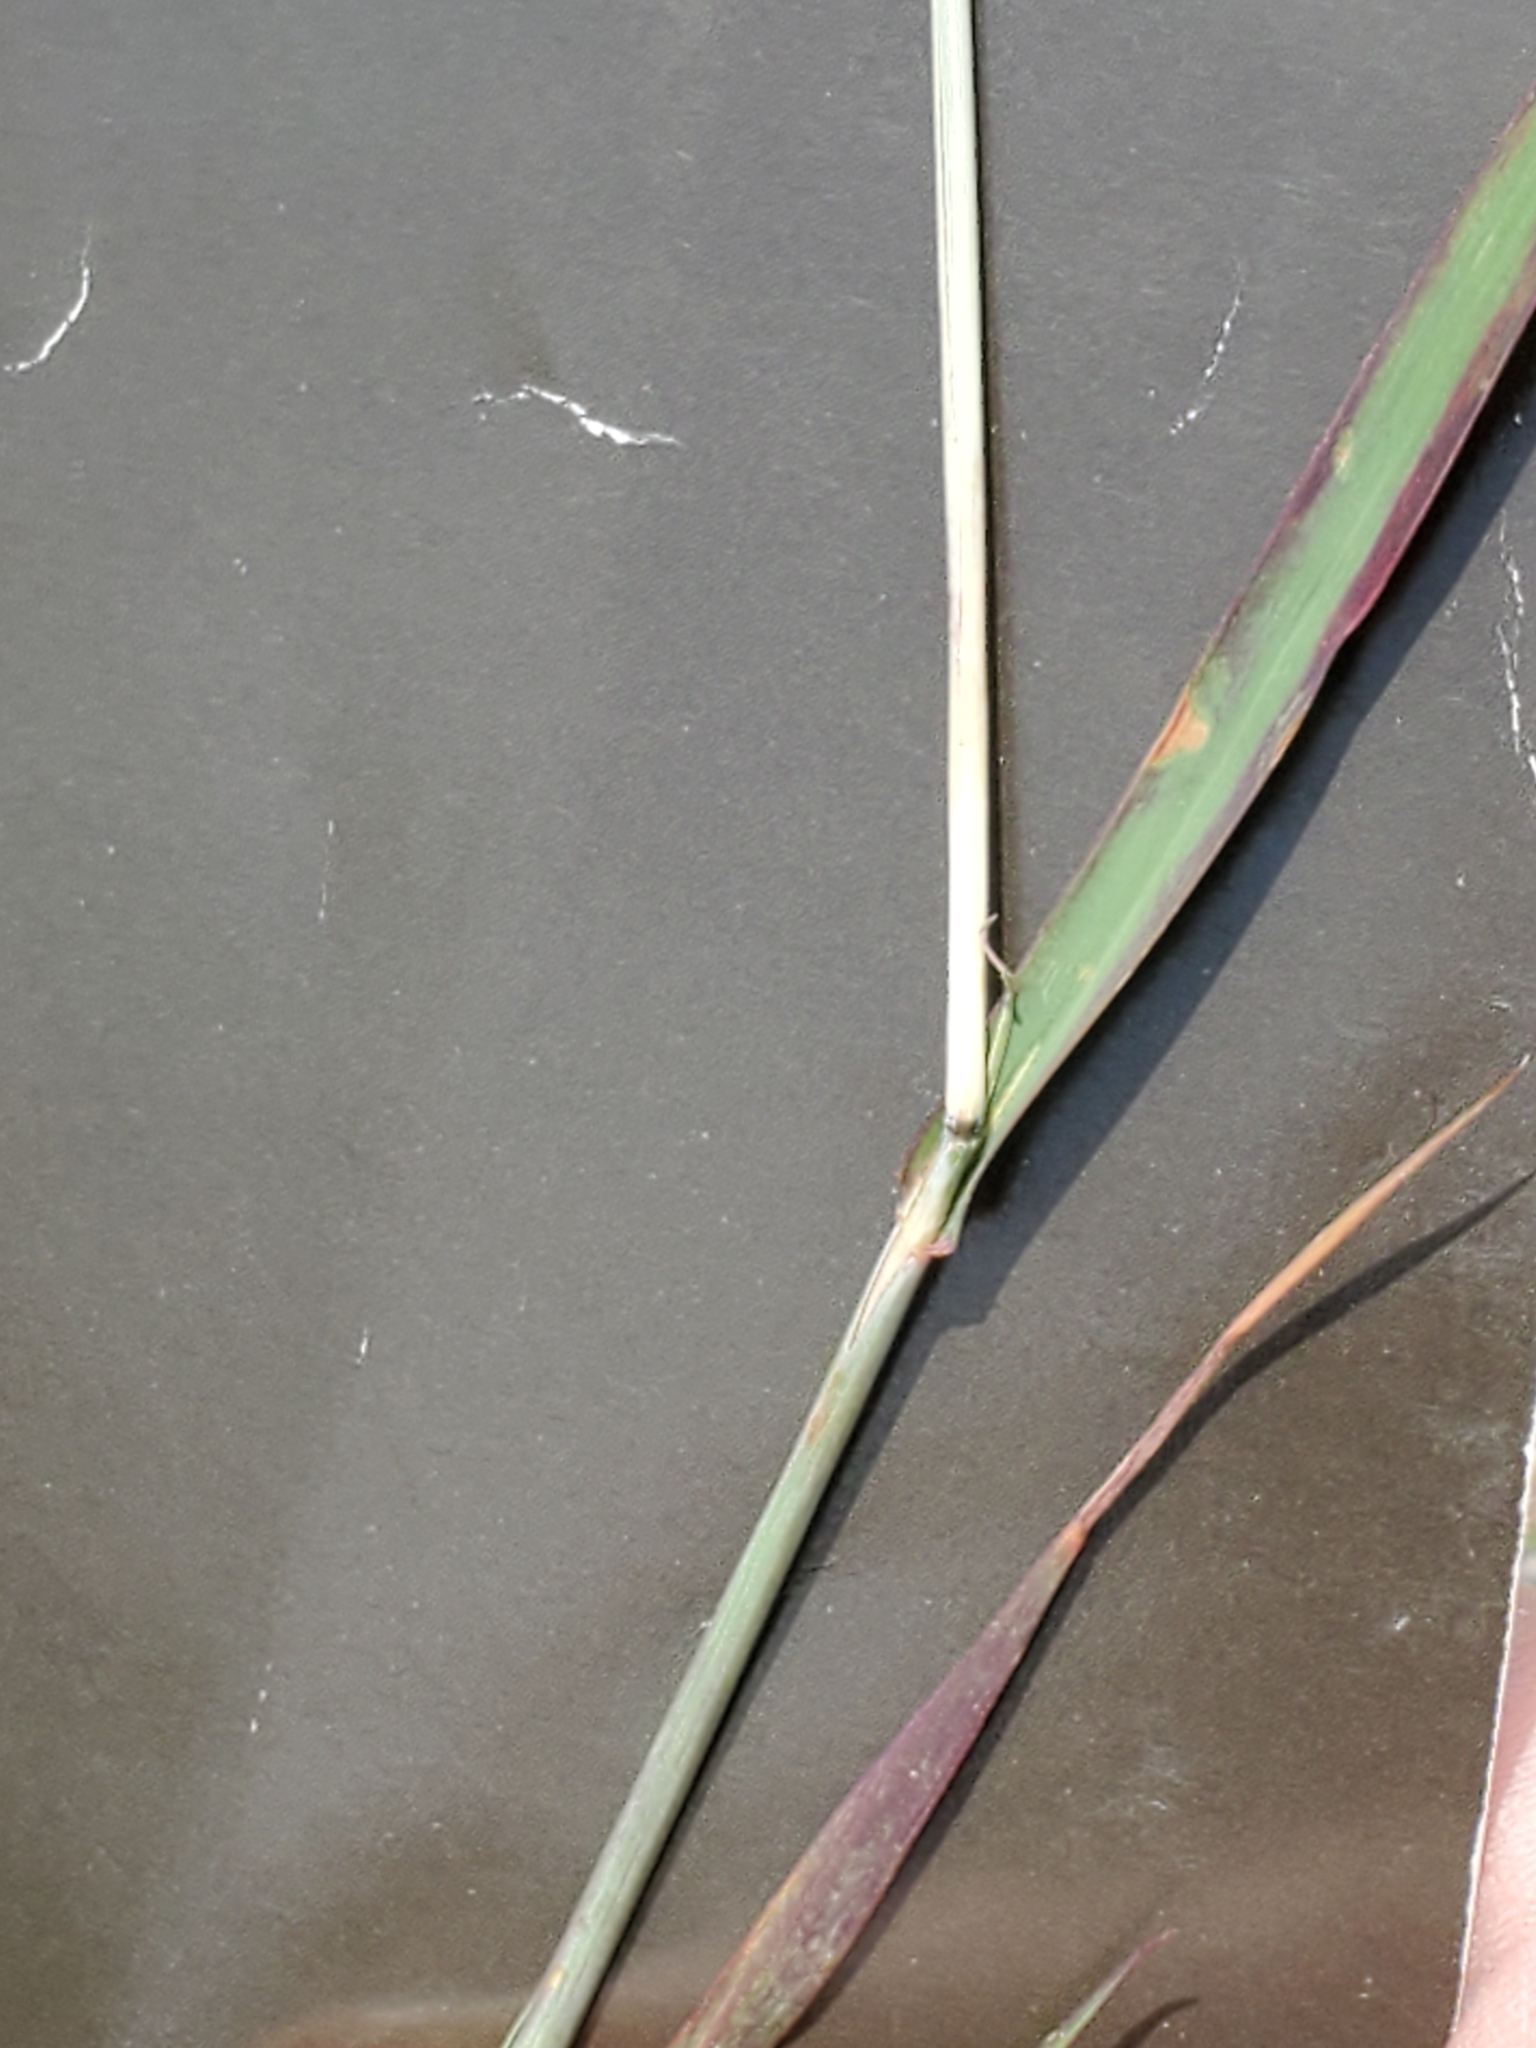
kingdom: Plantae
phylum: Tracheophyta
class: Liliopsida
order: Poales
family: Poaceae
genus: Bothriochloa
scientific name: Bothriochloa barbinodis
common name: Cane bluestem
